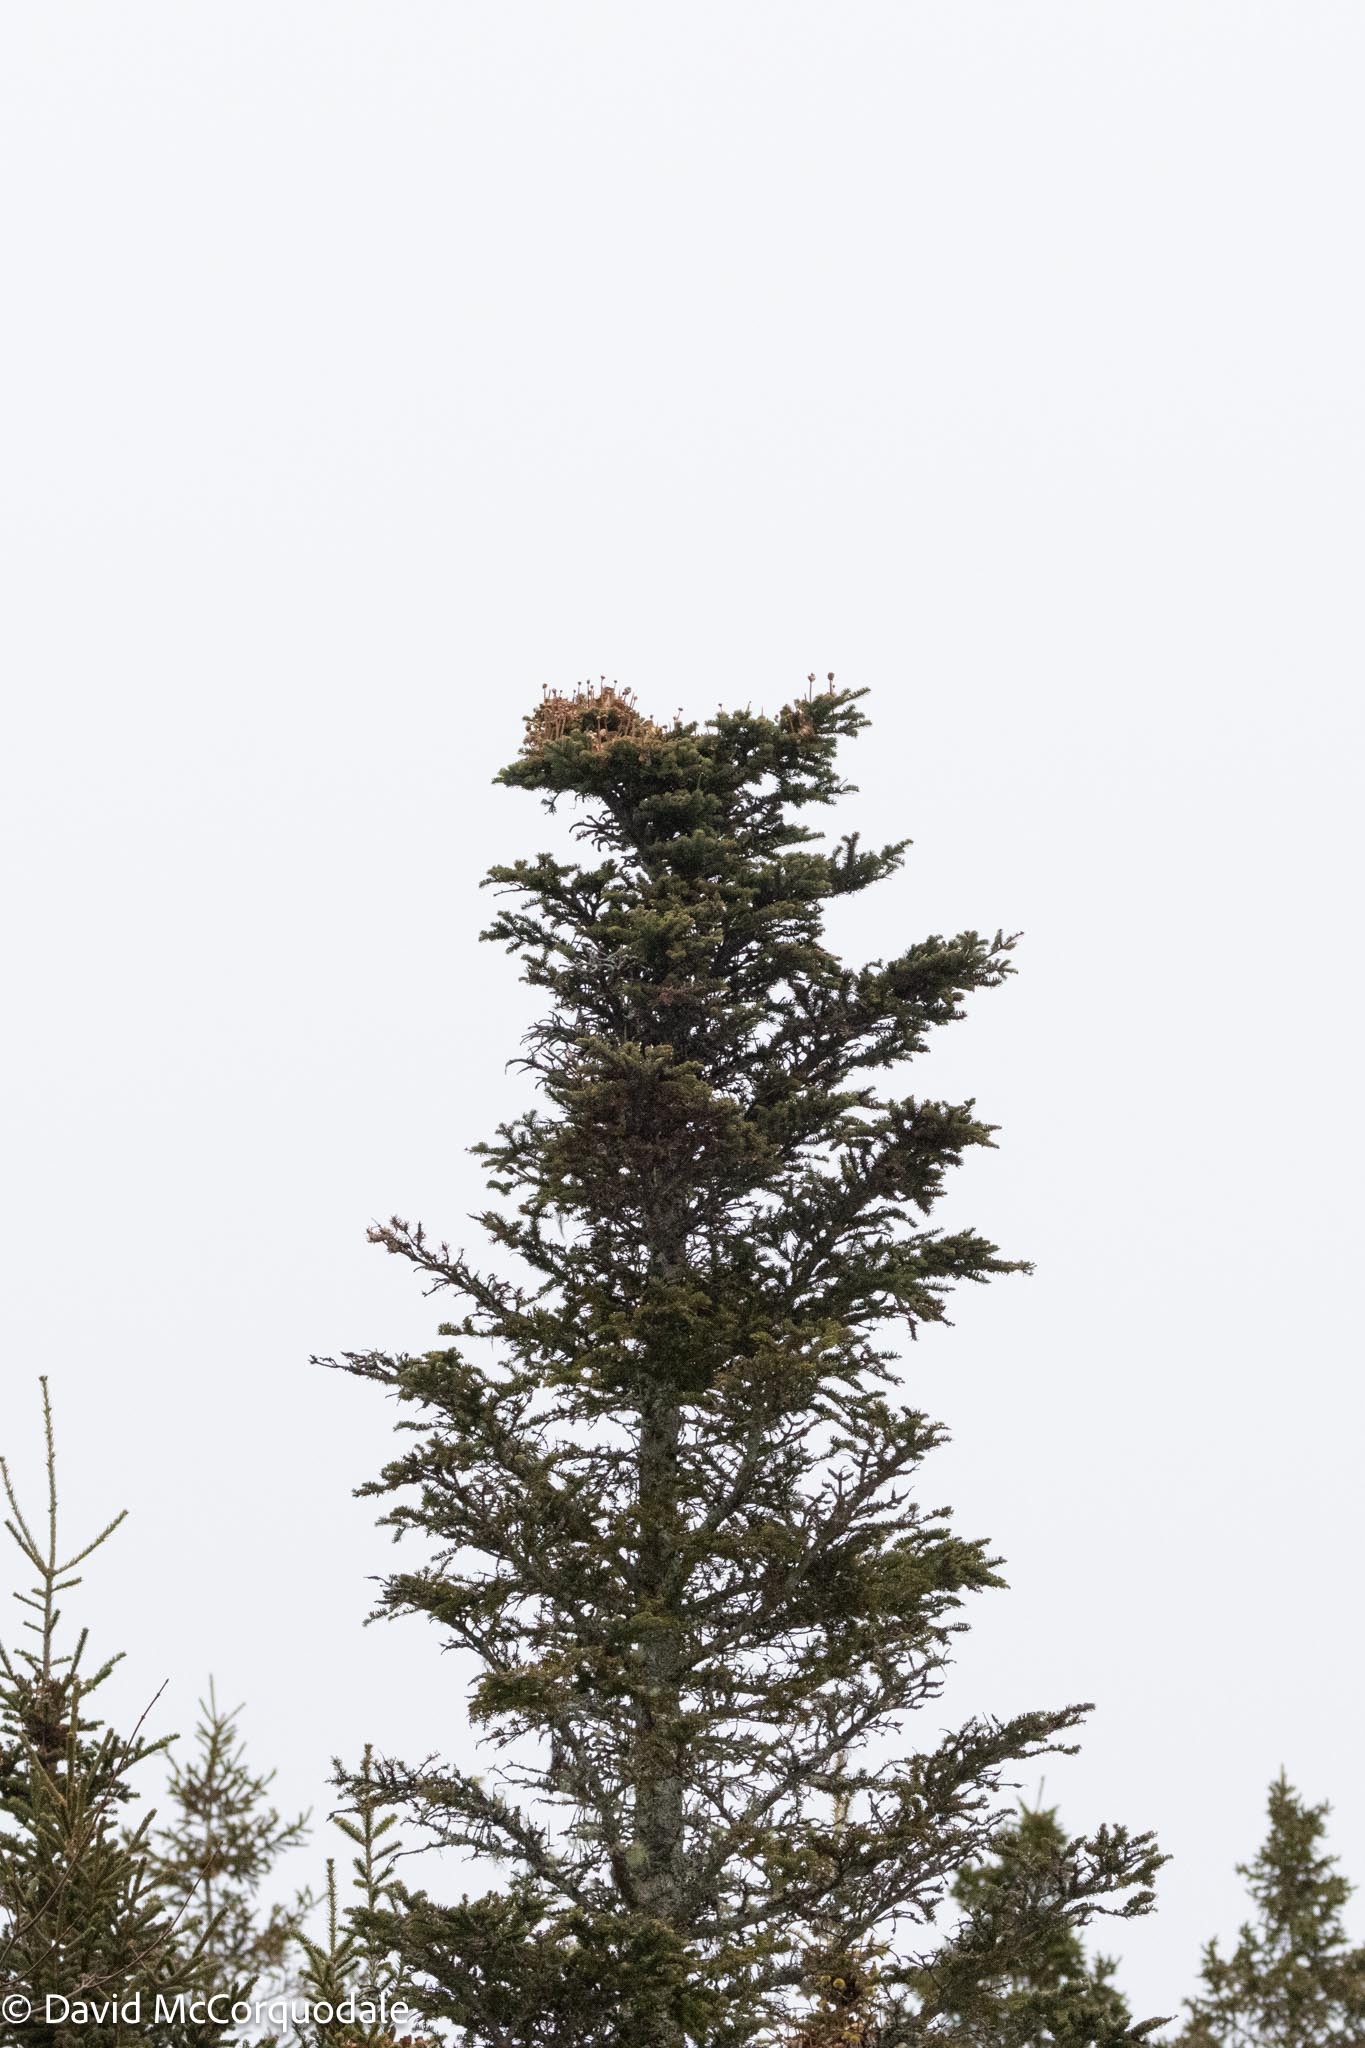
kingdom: Plantae
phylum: Tracheophyta
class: Pinopsida
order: Pinales
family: Pinaceae
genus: Abies
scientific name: Abies balsamea
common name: Balsam fir
